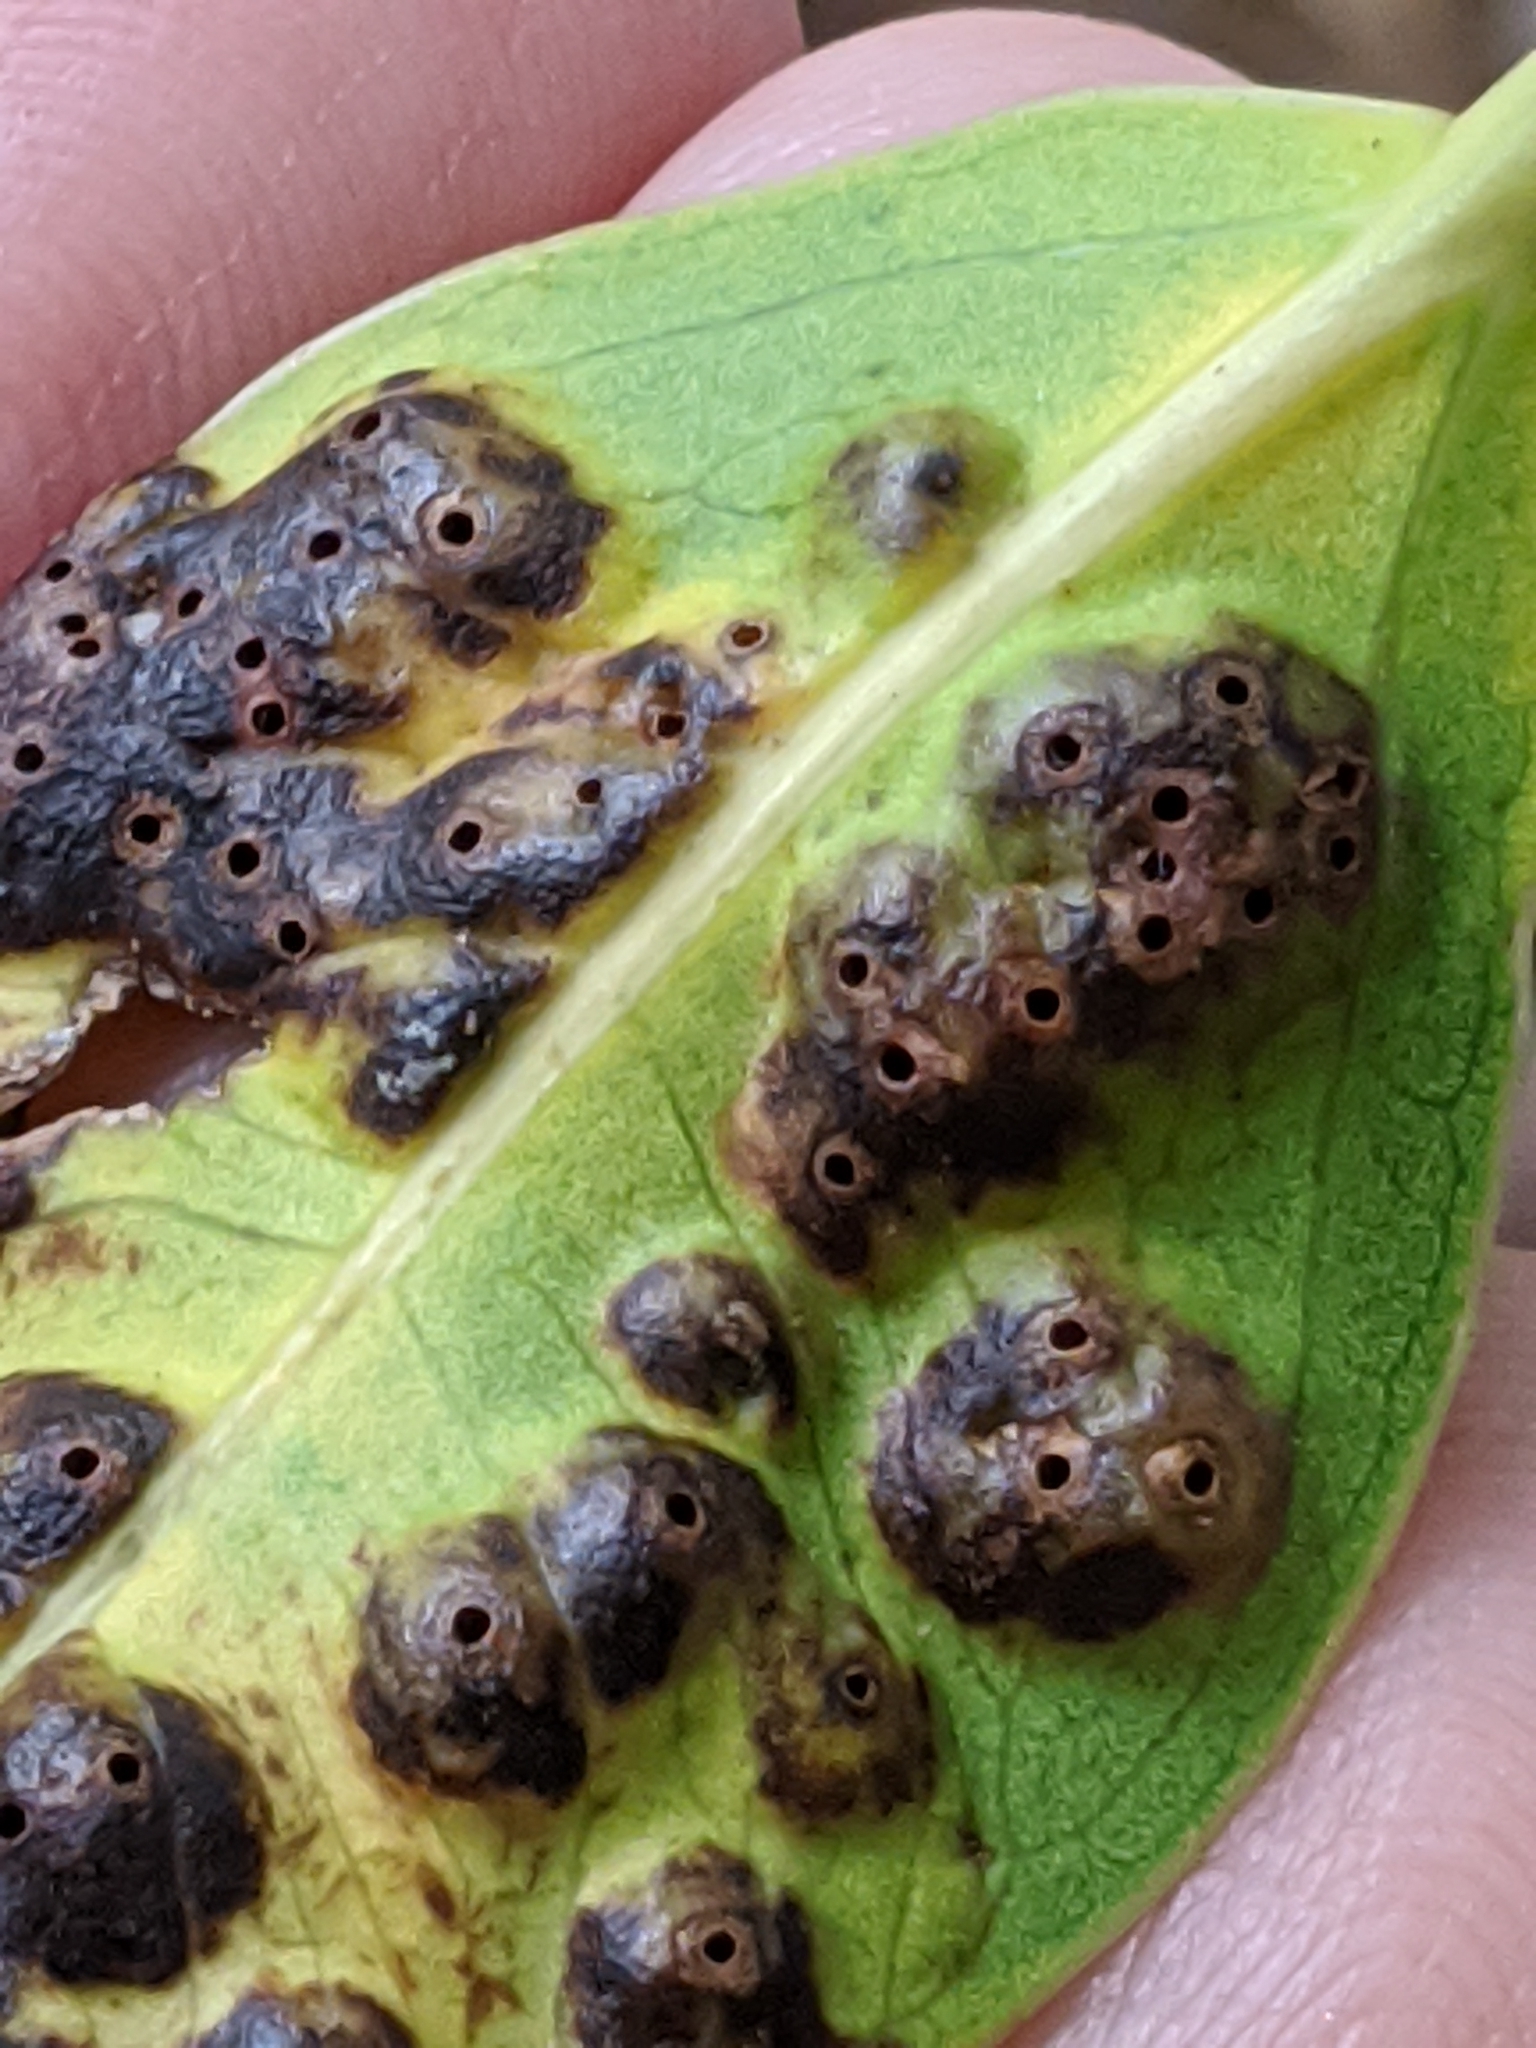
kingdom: Animalia
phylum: Arthropoda
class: Insecta
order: Hymenoptera
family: Agaonidae
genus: Josephiella
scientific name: Josephiella microcarpae
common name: Wasp
